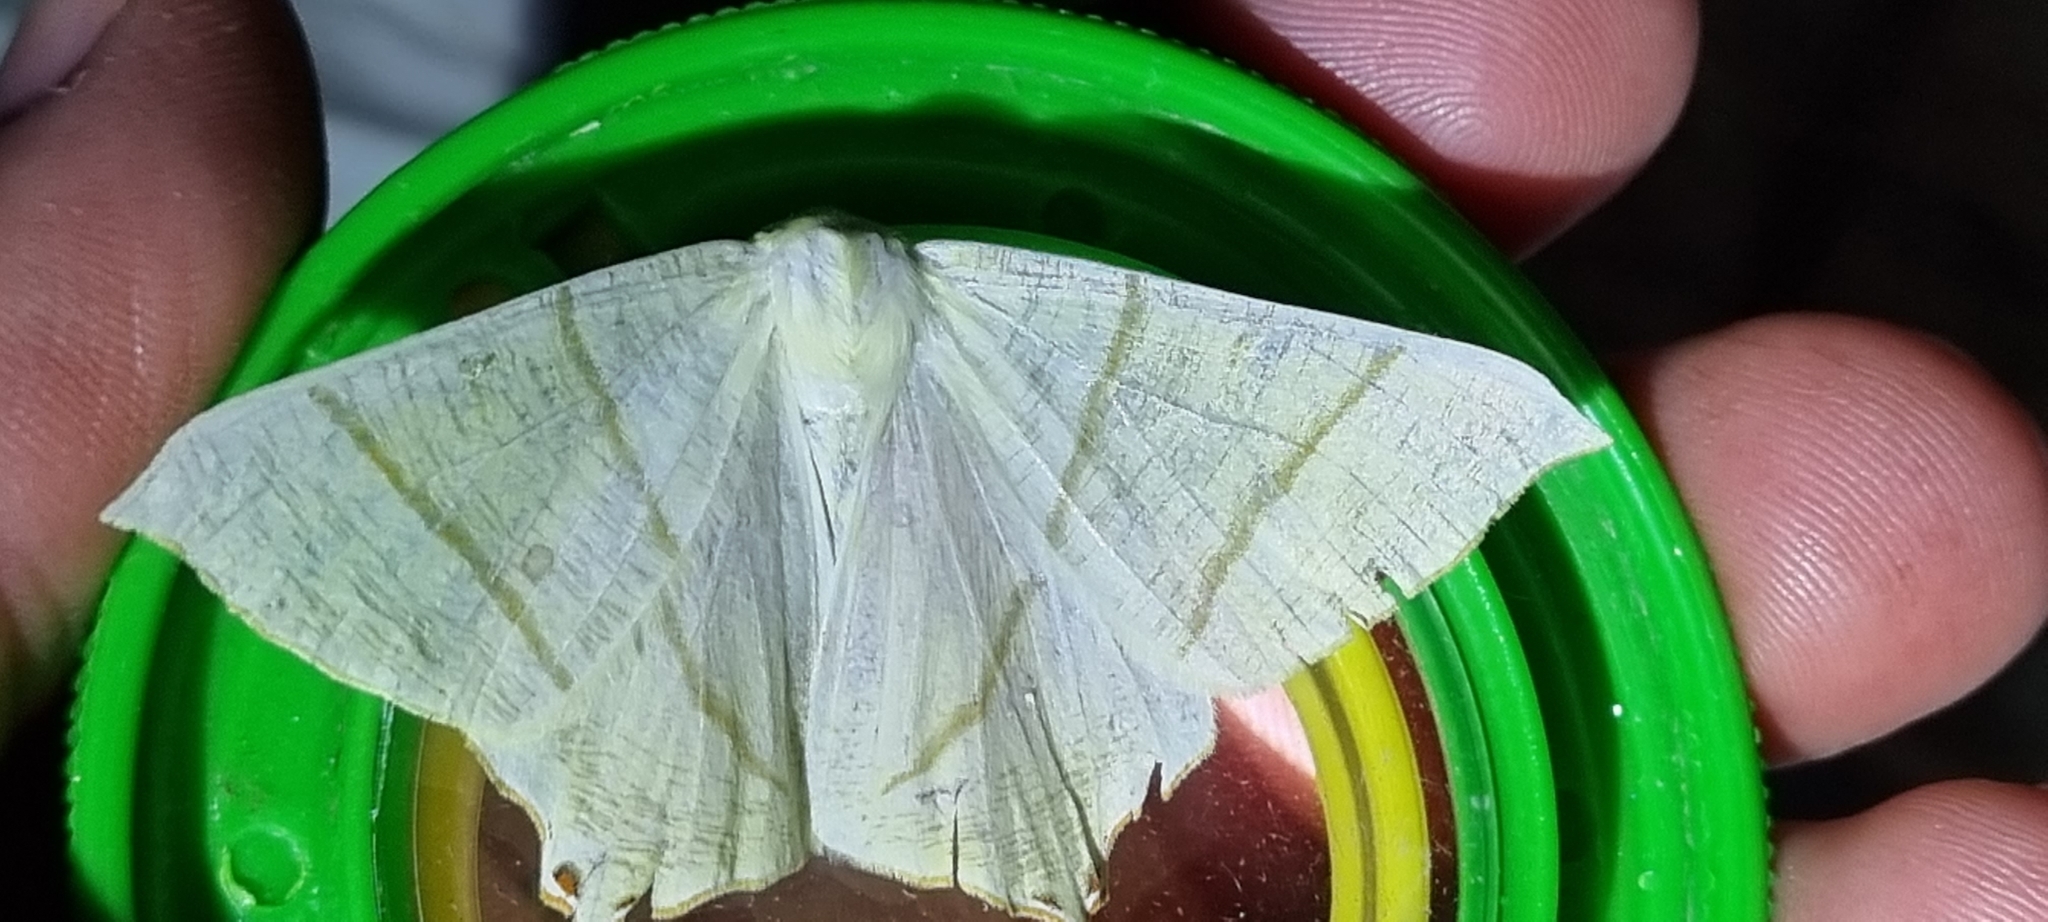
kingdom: Animalia
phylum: Arthropoda
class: Insecta
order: Lepidoptera
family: Geometridae
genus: Ourapteryx
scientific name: Ourapteryx sambucaria
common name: Swallow-tailed moth
